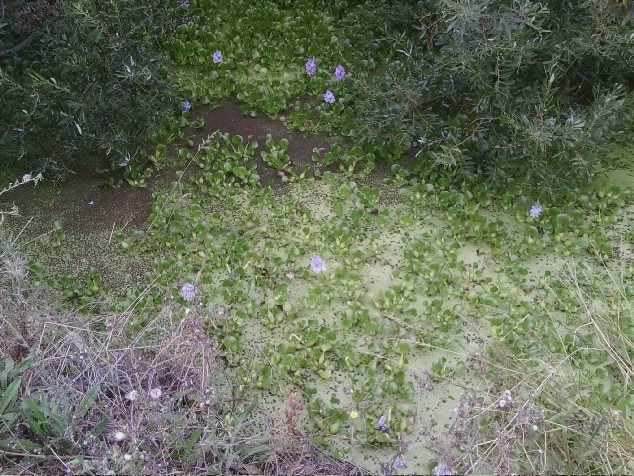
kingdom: Plantae
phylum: Tracheophyta
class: Liliopsida
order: Commelinales
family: Pontederiaceae
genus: Pontederia
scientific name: Pontederia crassipes
